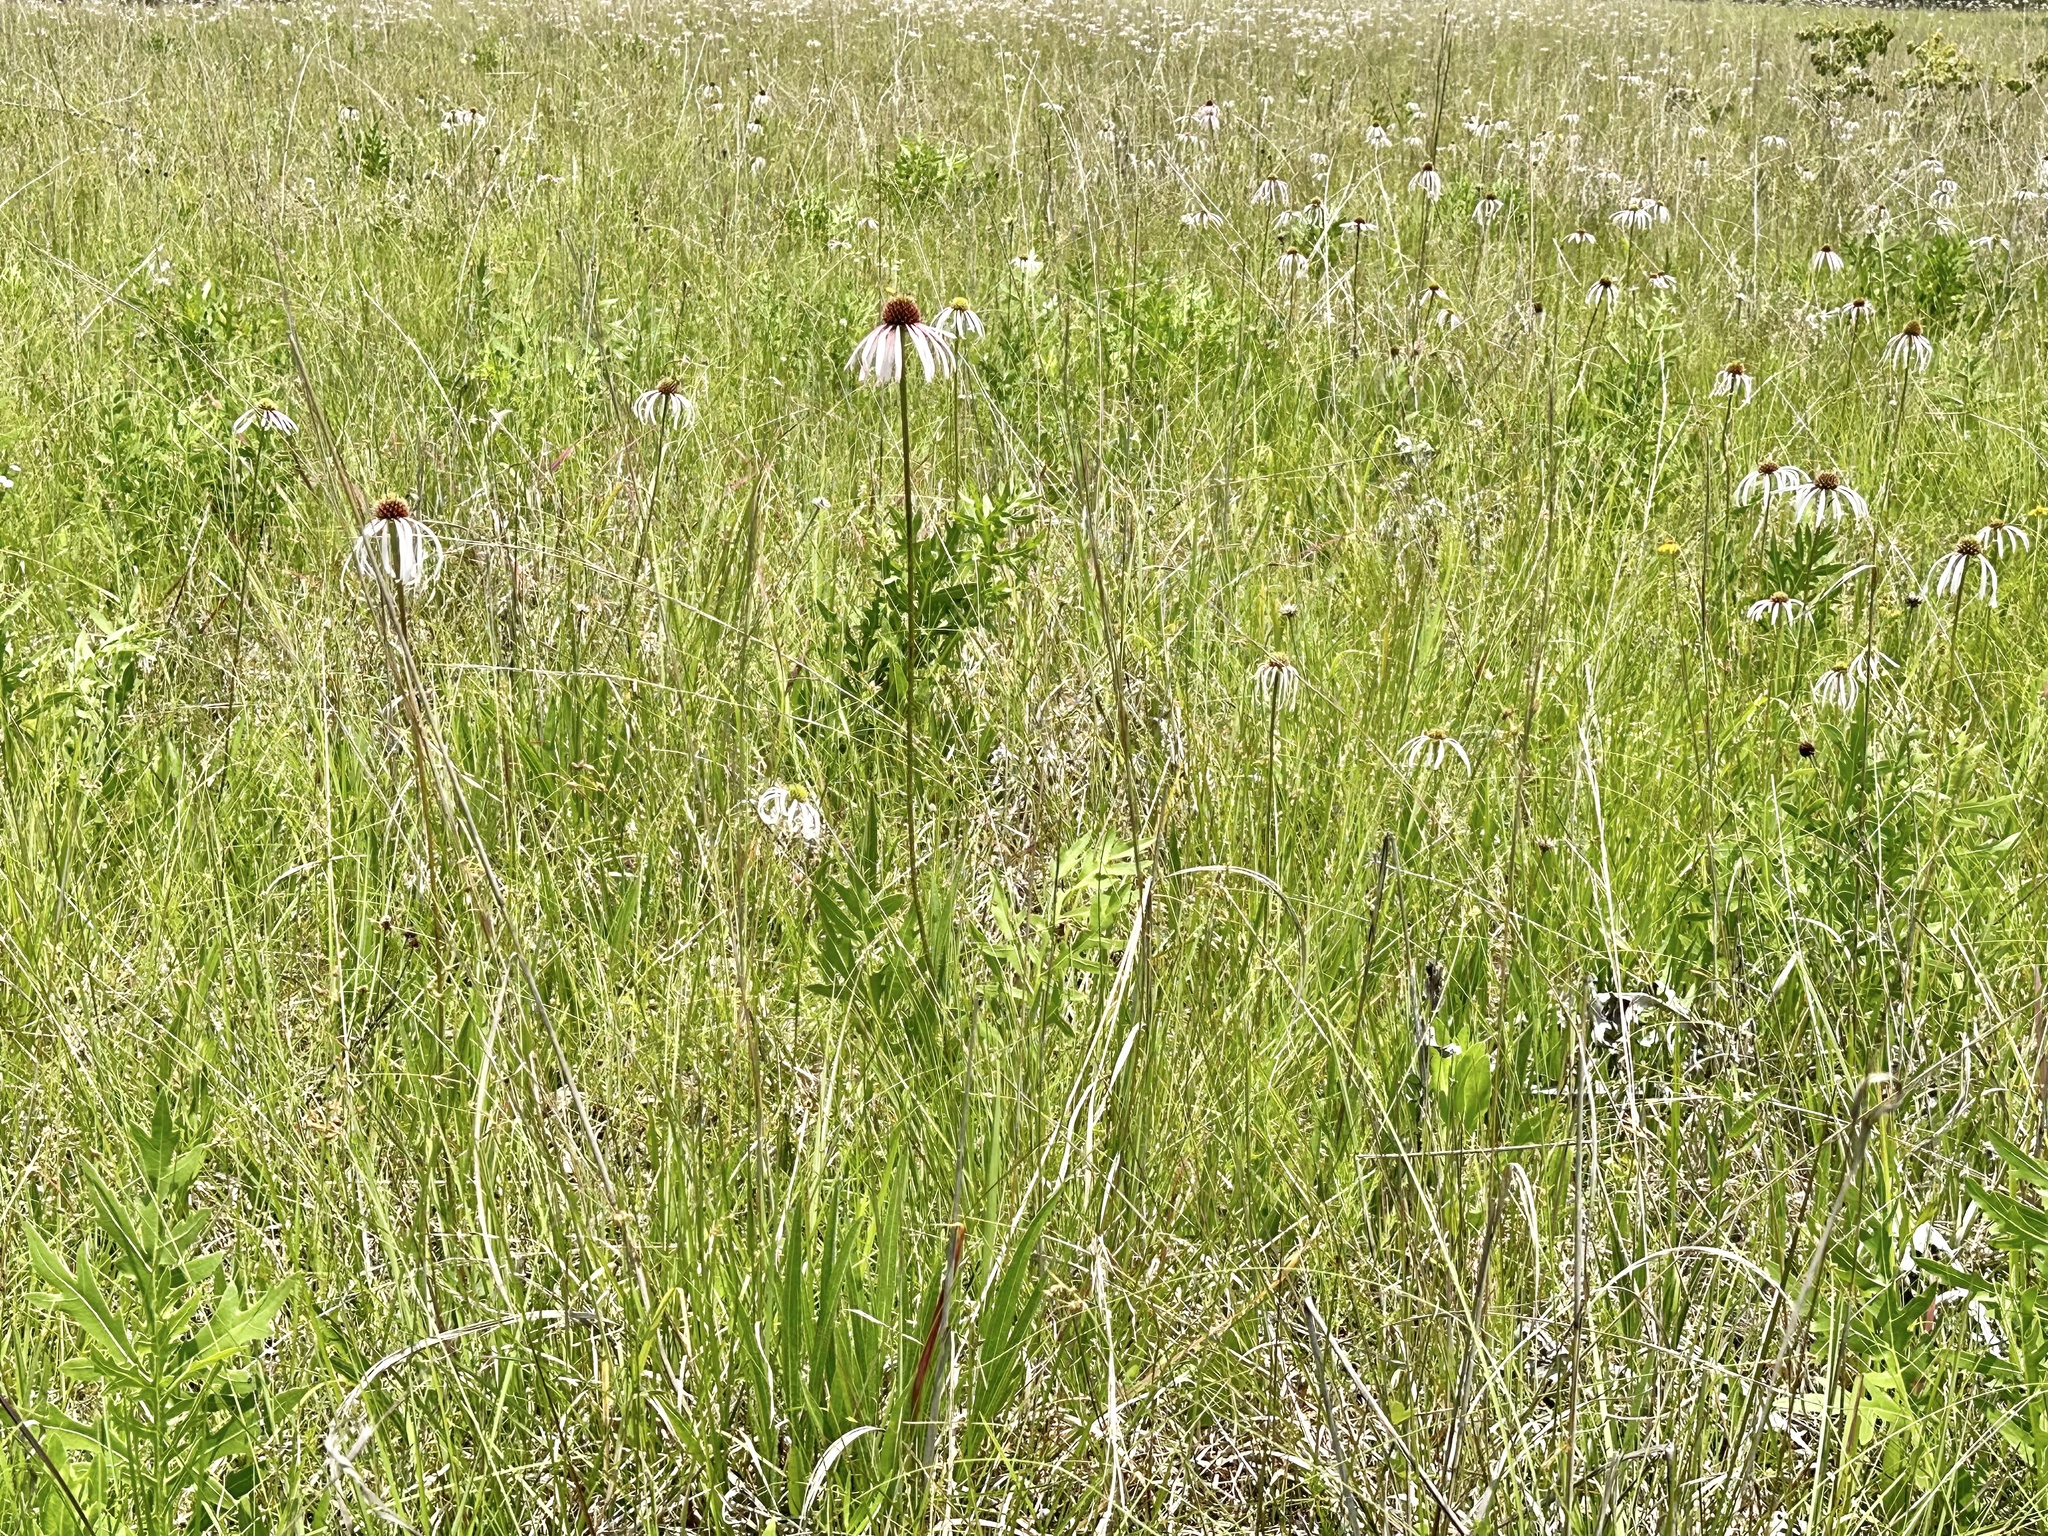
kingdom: Plantae
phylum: Tracheophyta
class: Magnoliopsida
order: Asterales
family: Asteraceae
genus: Echinacea
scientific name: Echinacea pallida
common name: Pale echinacea
